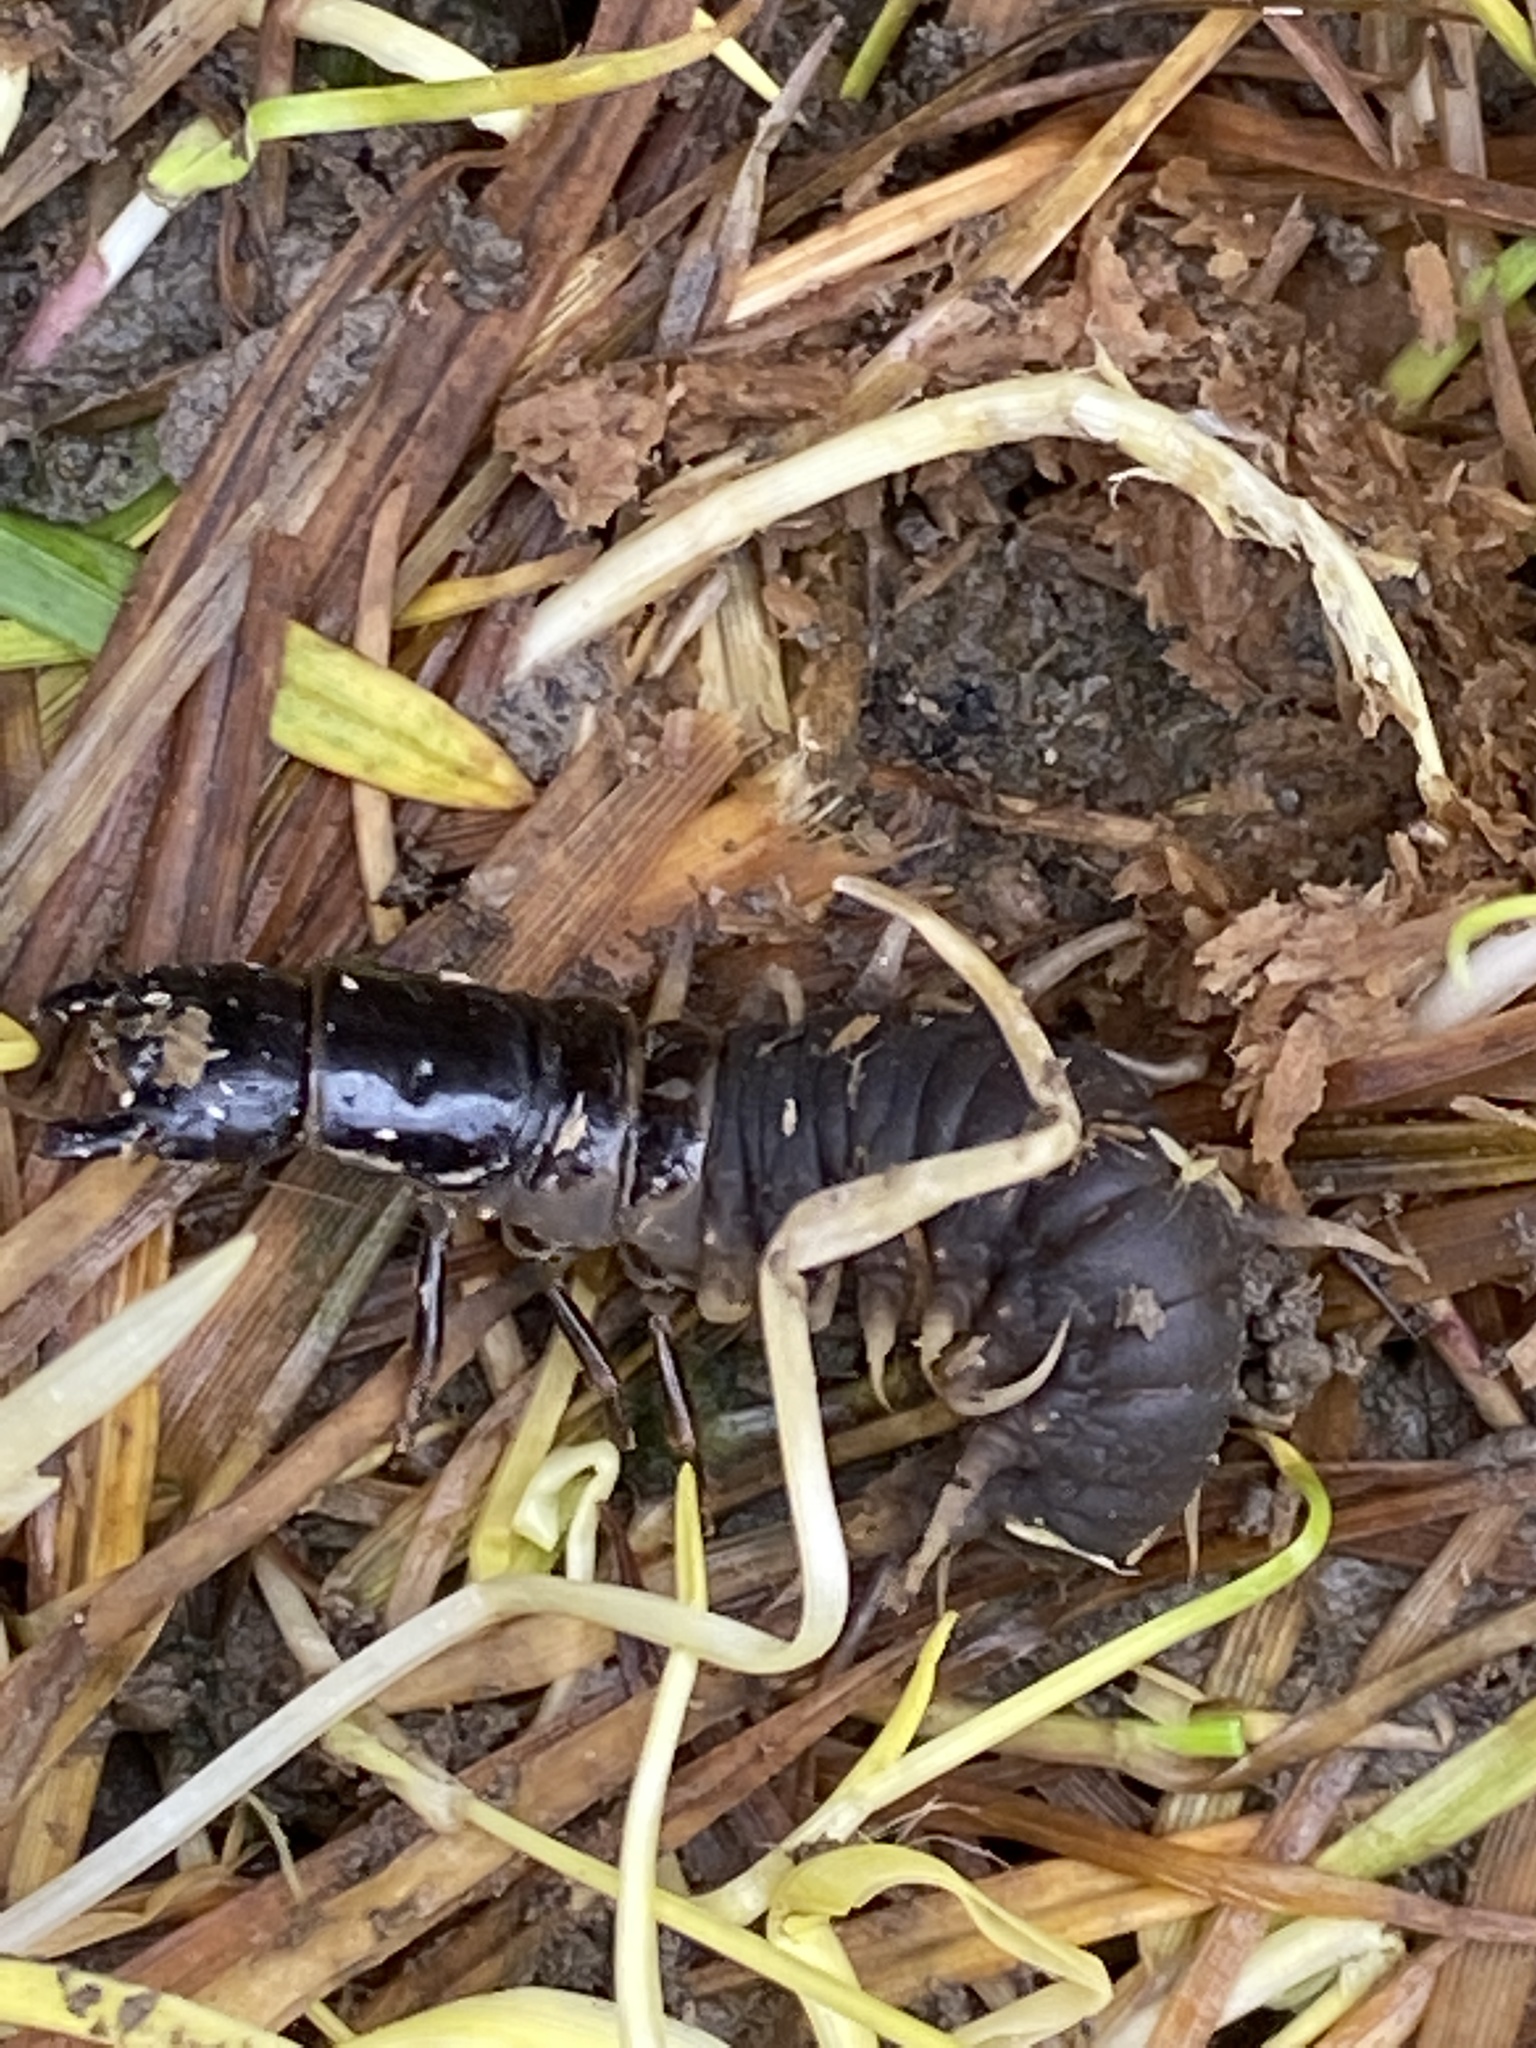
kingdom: Animalia
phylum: Arthropoda
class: Insecta
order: Megaloptera
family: Corydalidae
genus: Archichauliodes
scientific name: Archichauliodes diversus
